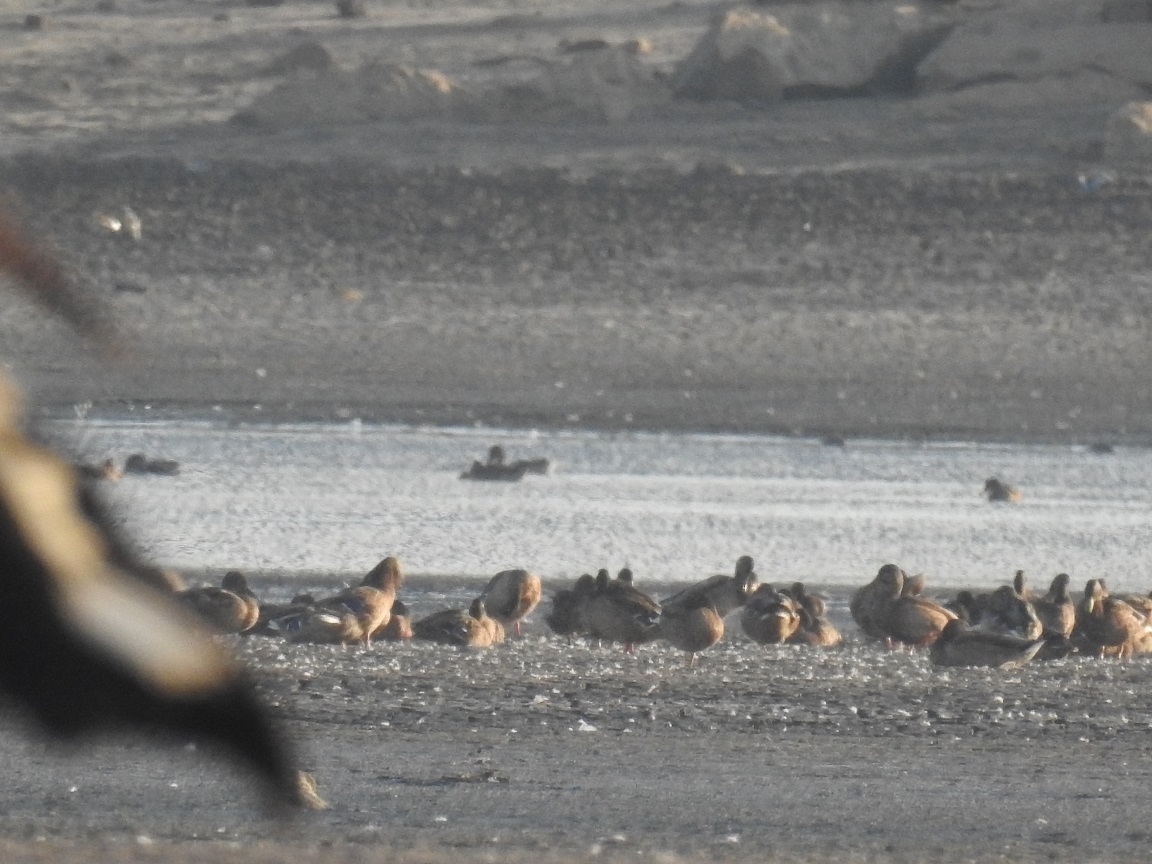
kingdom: Animalia
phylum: Chordata
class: Aves
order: Anseriformes
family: Anatidae
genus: Anas
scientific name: Anas platyrhynchos
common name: Mallard
